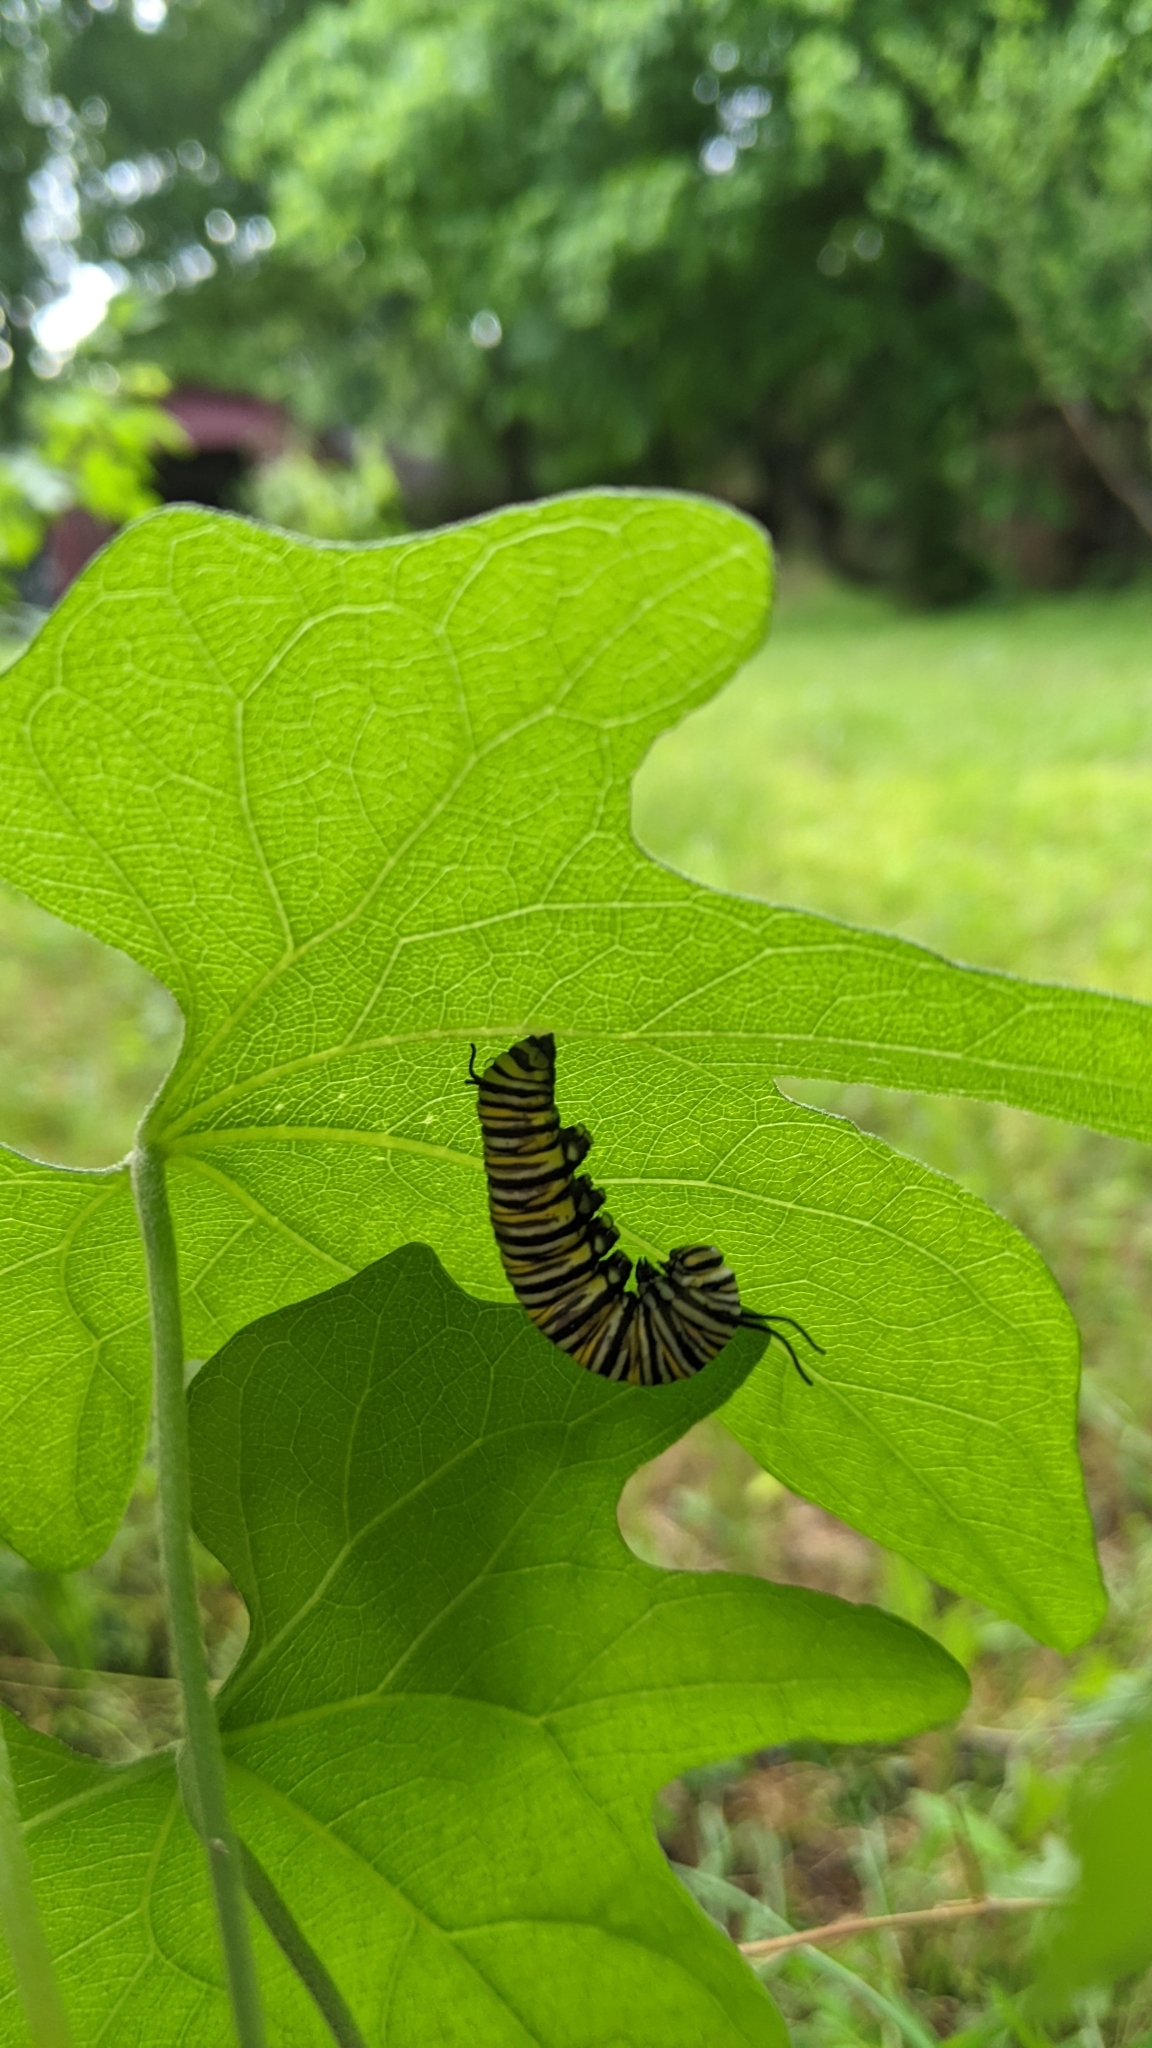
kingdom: Animalia
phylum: Arthropoda
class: Insecta
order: Lepidoptera
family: Nymphalidae
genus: Danaus
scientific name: Danaus plexippus
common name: Monarch
